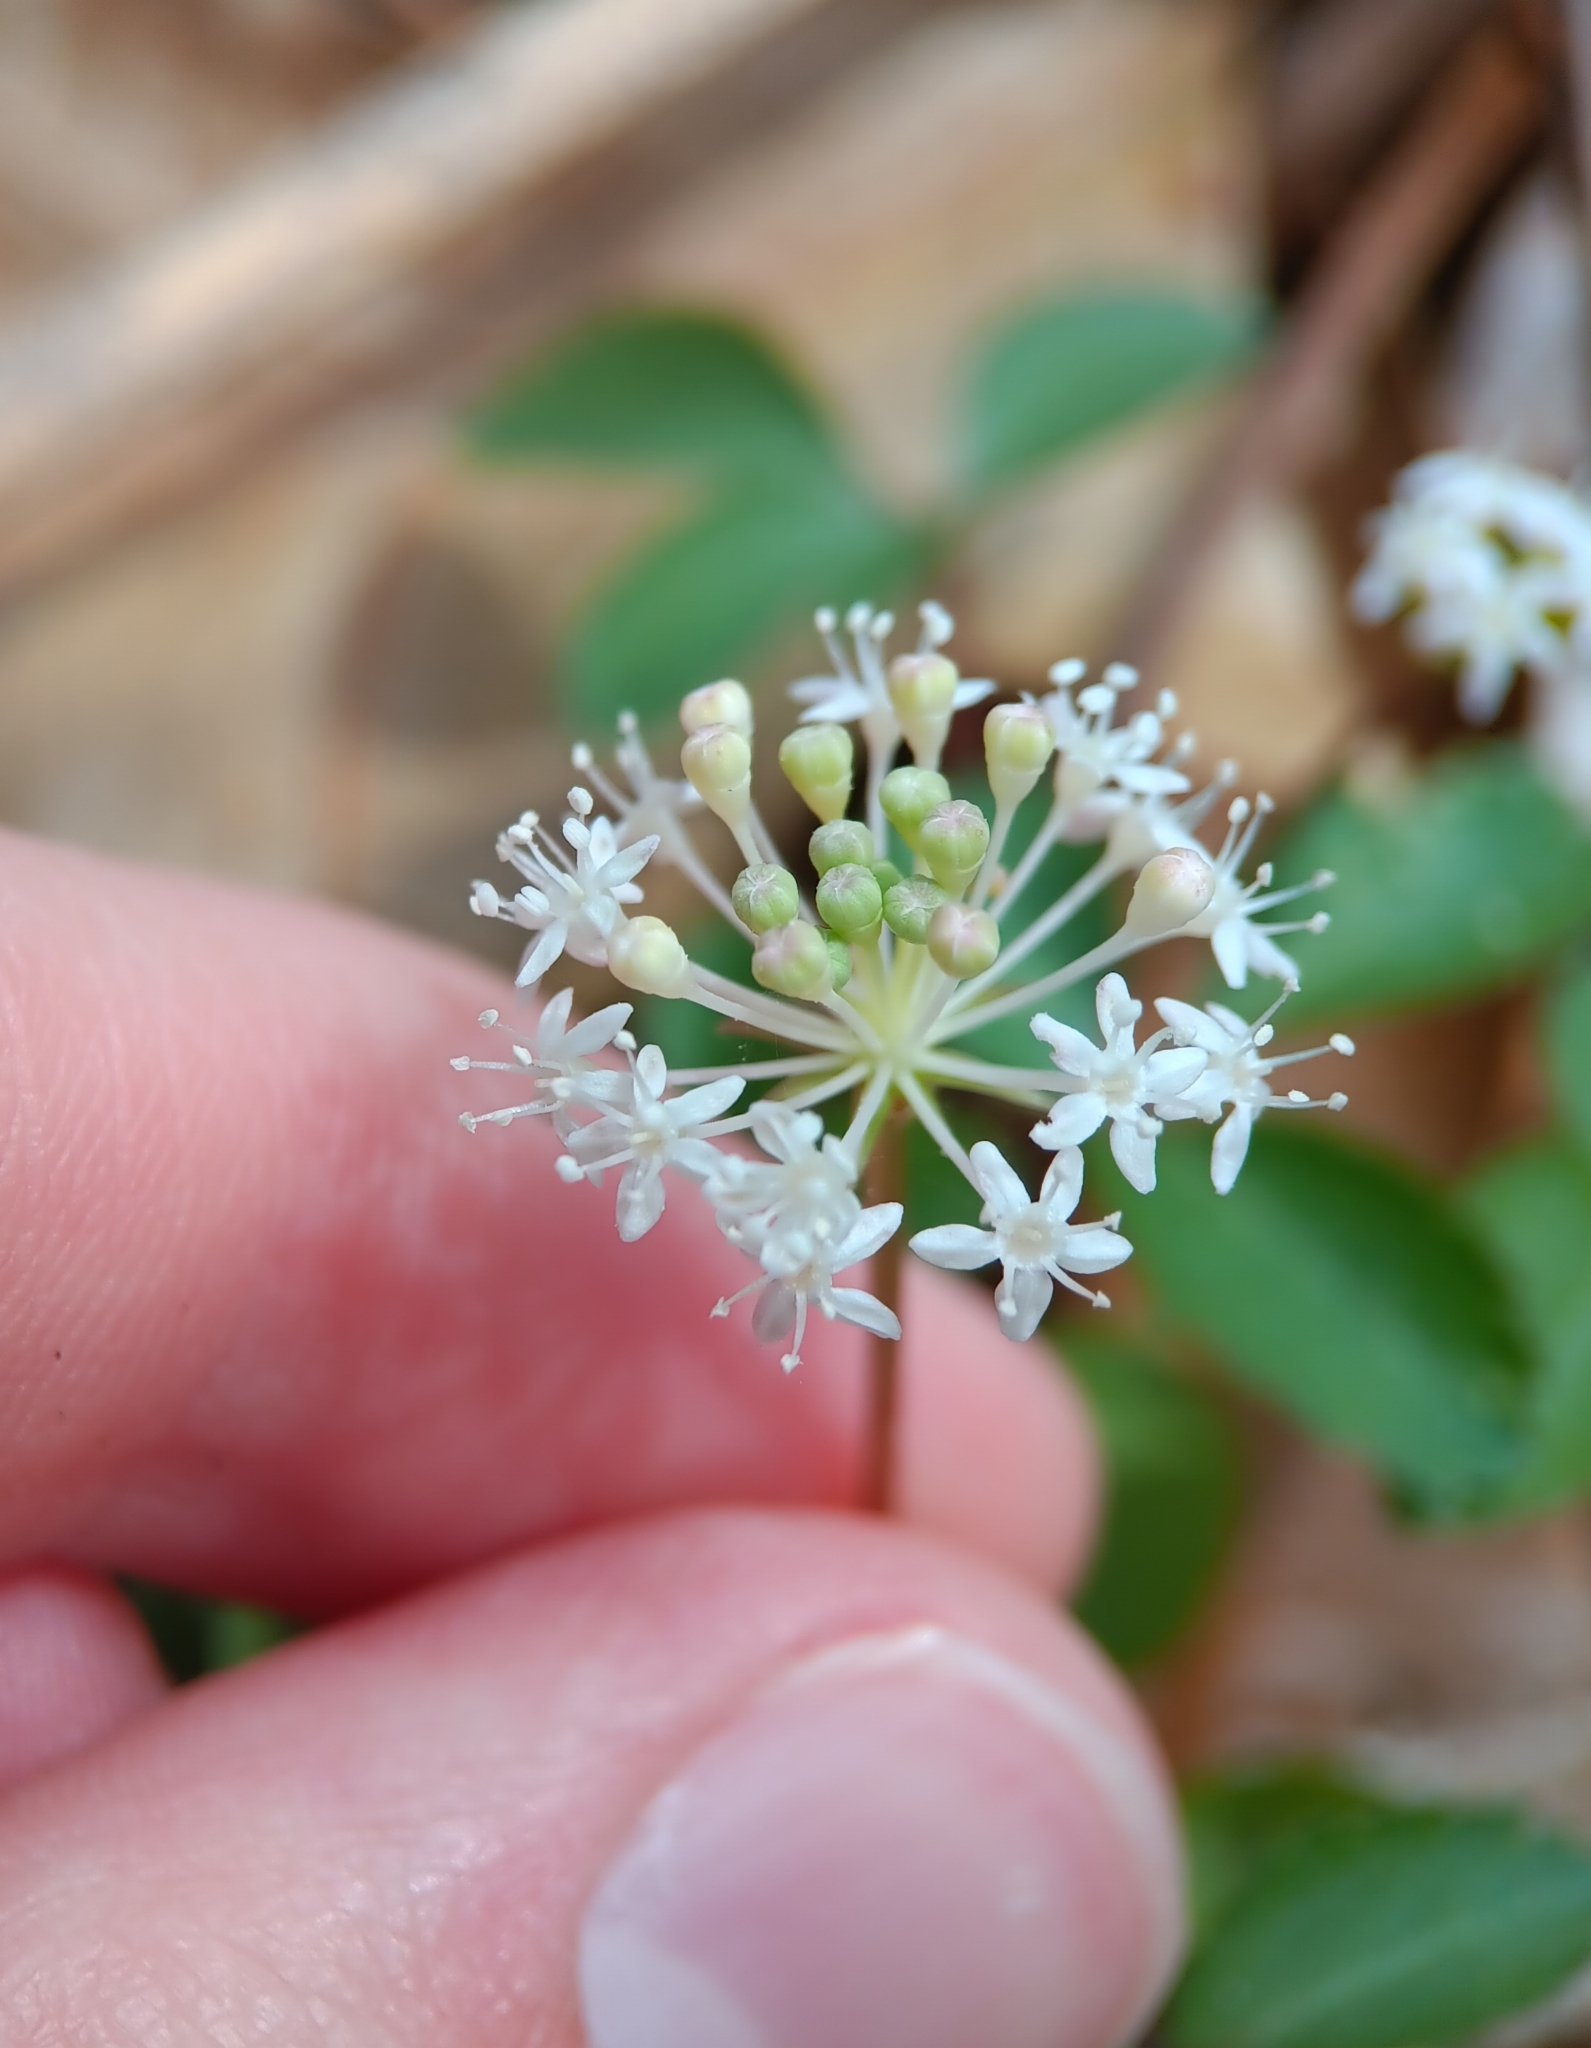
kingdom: Plantae
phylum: Tracheophyta
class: Magnoliopsida
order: Apiales
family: Araliaceae
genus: Panax
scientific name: Panax trifolius
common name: Dwarf ginseng
